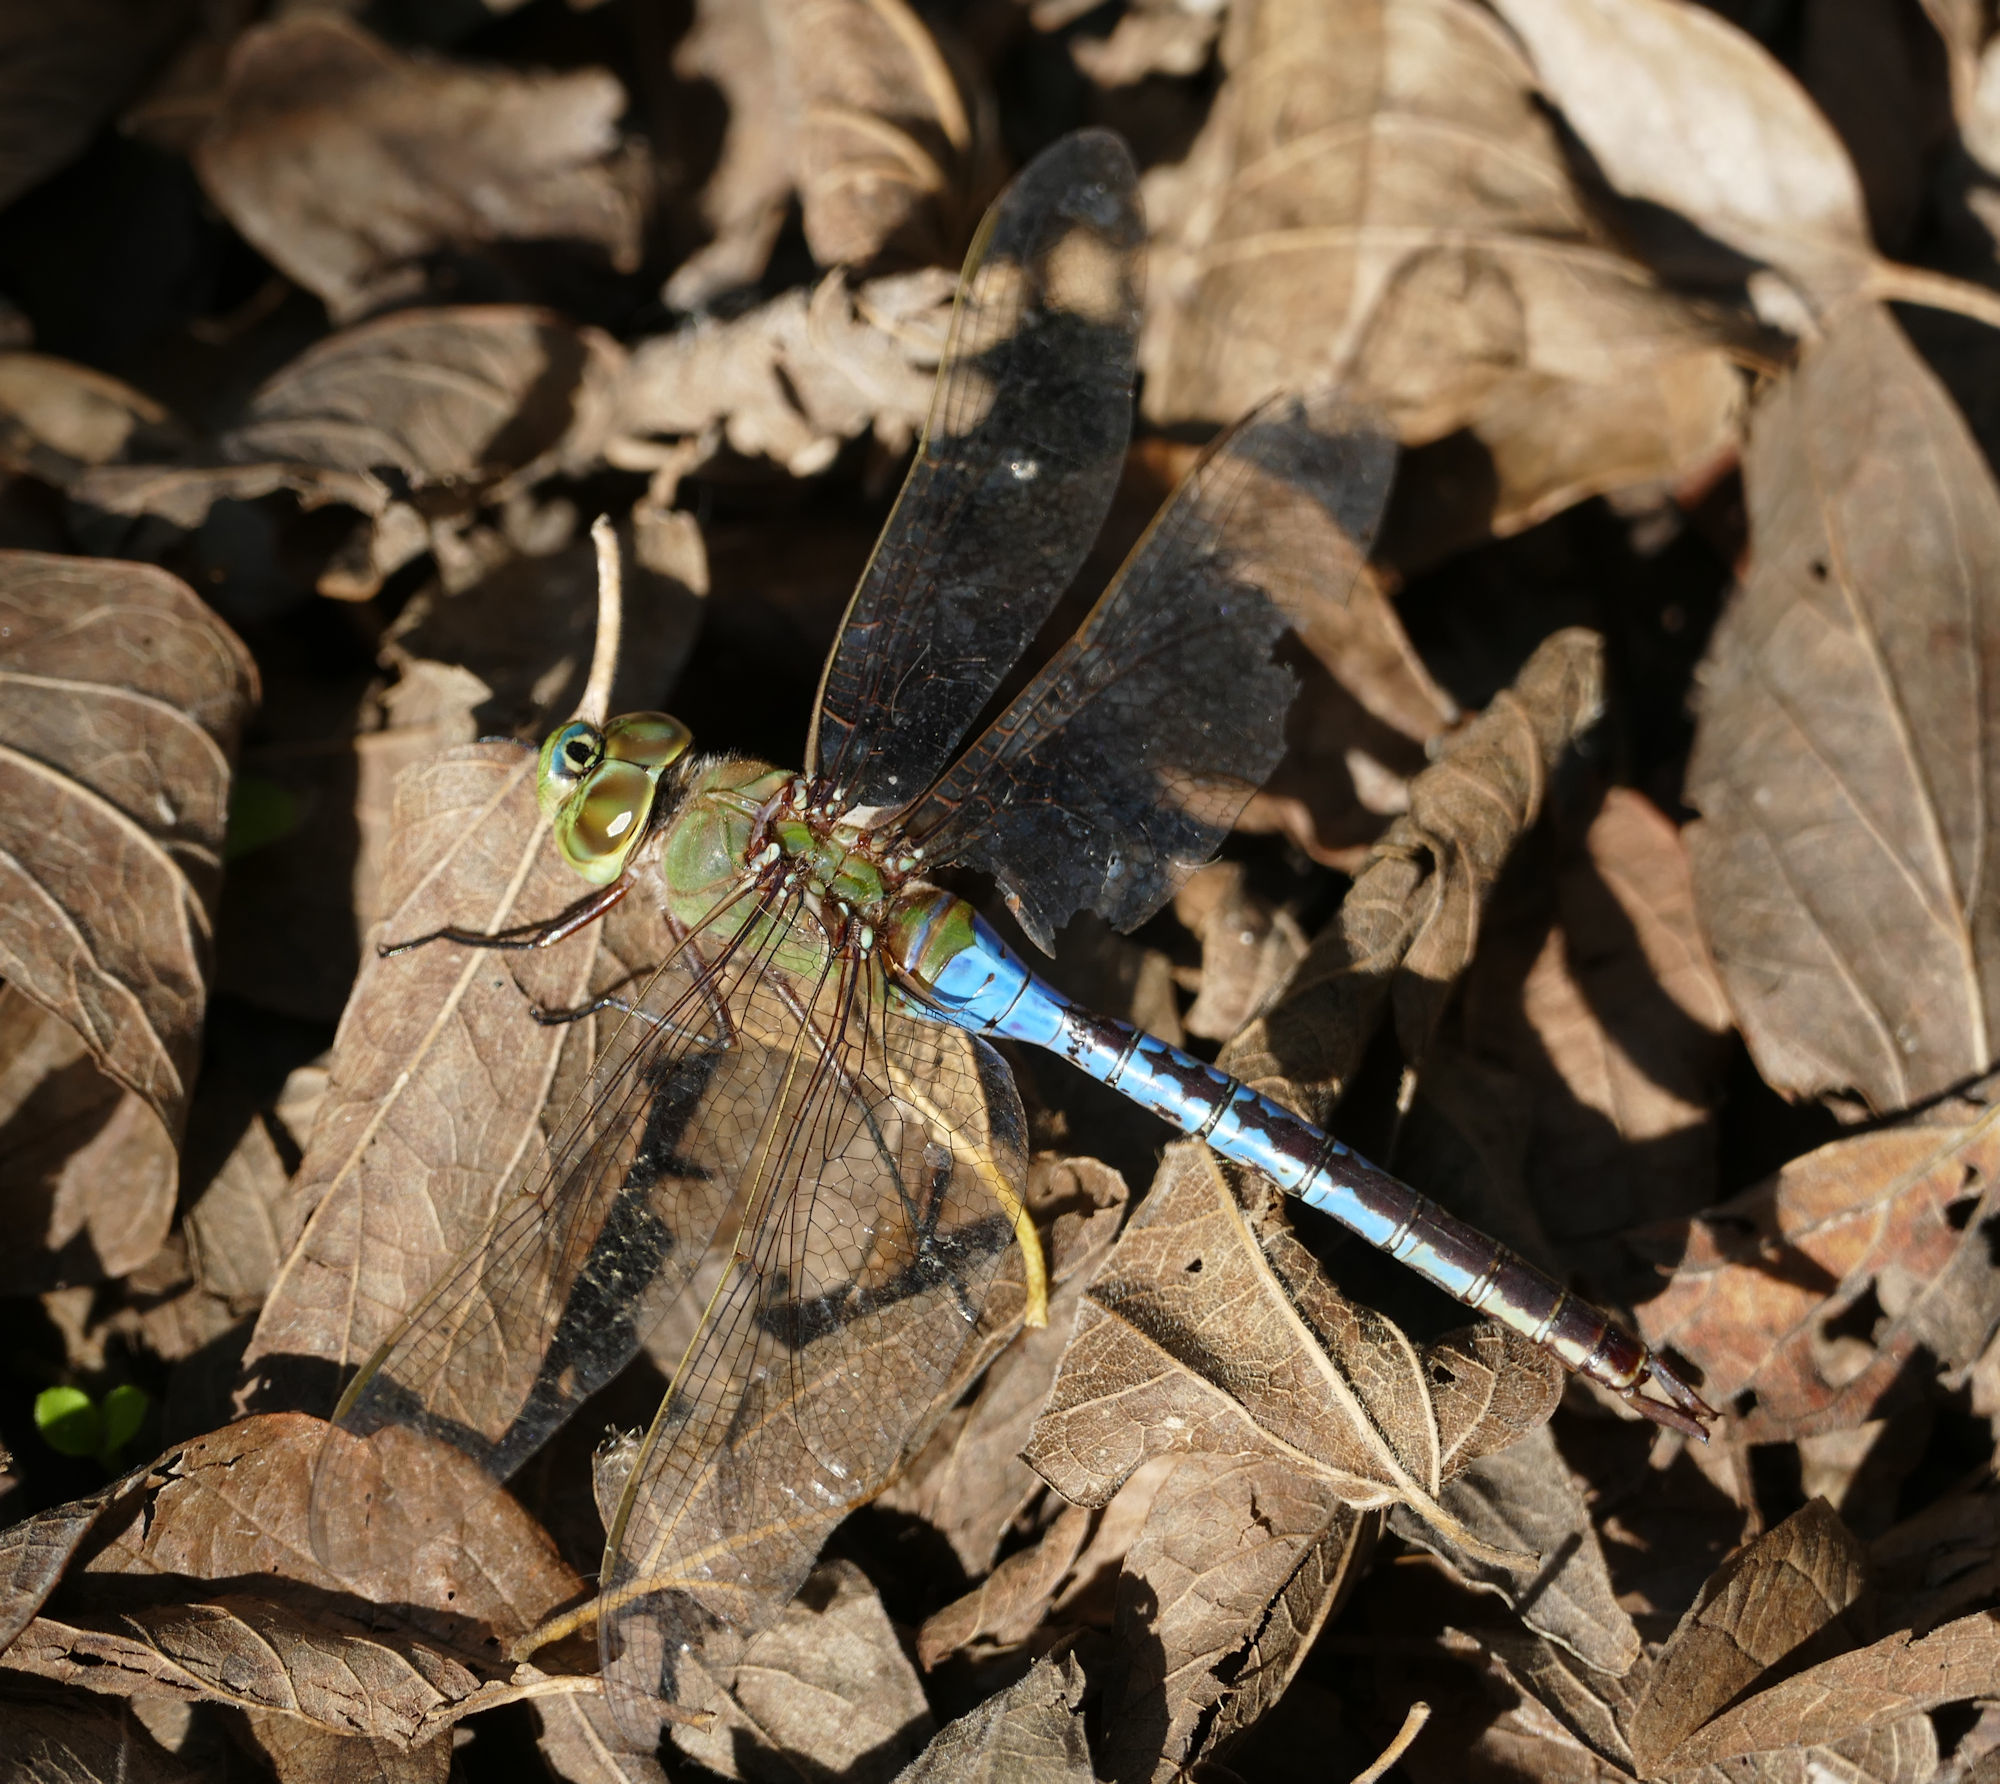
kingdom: Animalia
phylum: Arthropoda
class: Insecta
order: Odonata
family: Aeshnidae
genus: Anax
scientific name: Anax junius
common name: Common green darner
